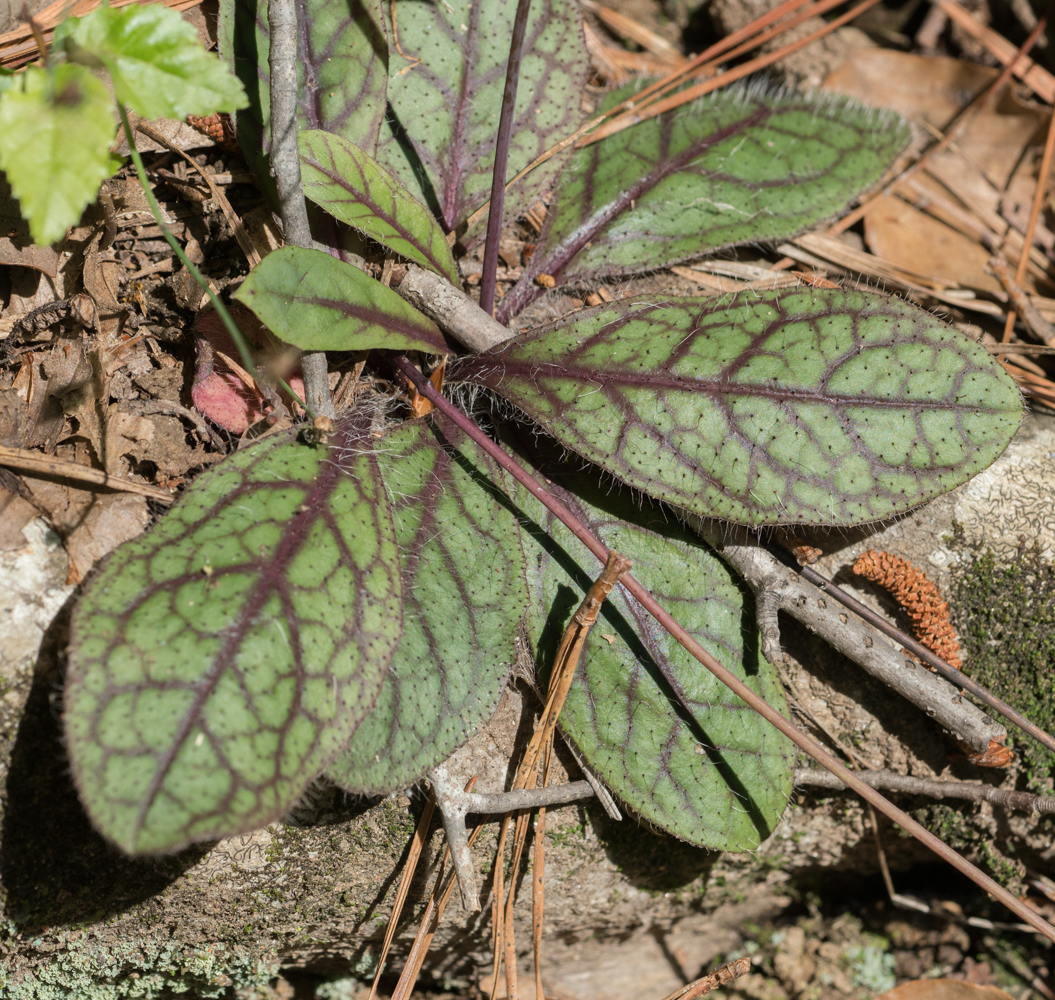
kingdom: Plantae
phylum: Tracheophyta
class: Magnoliopsida
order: Asterales
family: Asteraceae
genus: Hieracium
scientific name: Hieracium venosum
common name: Rattlesnake hawkweed
